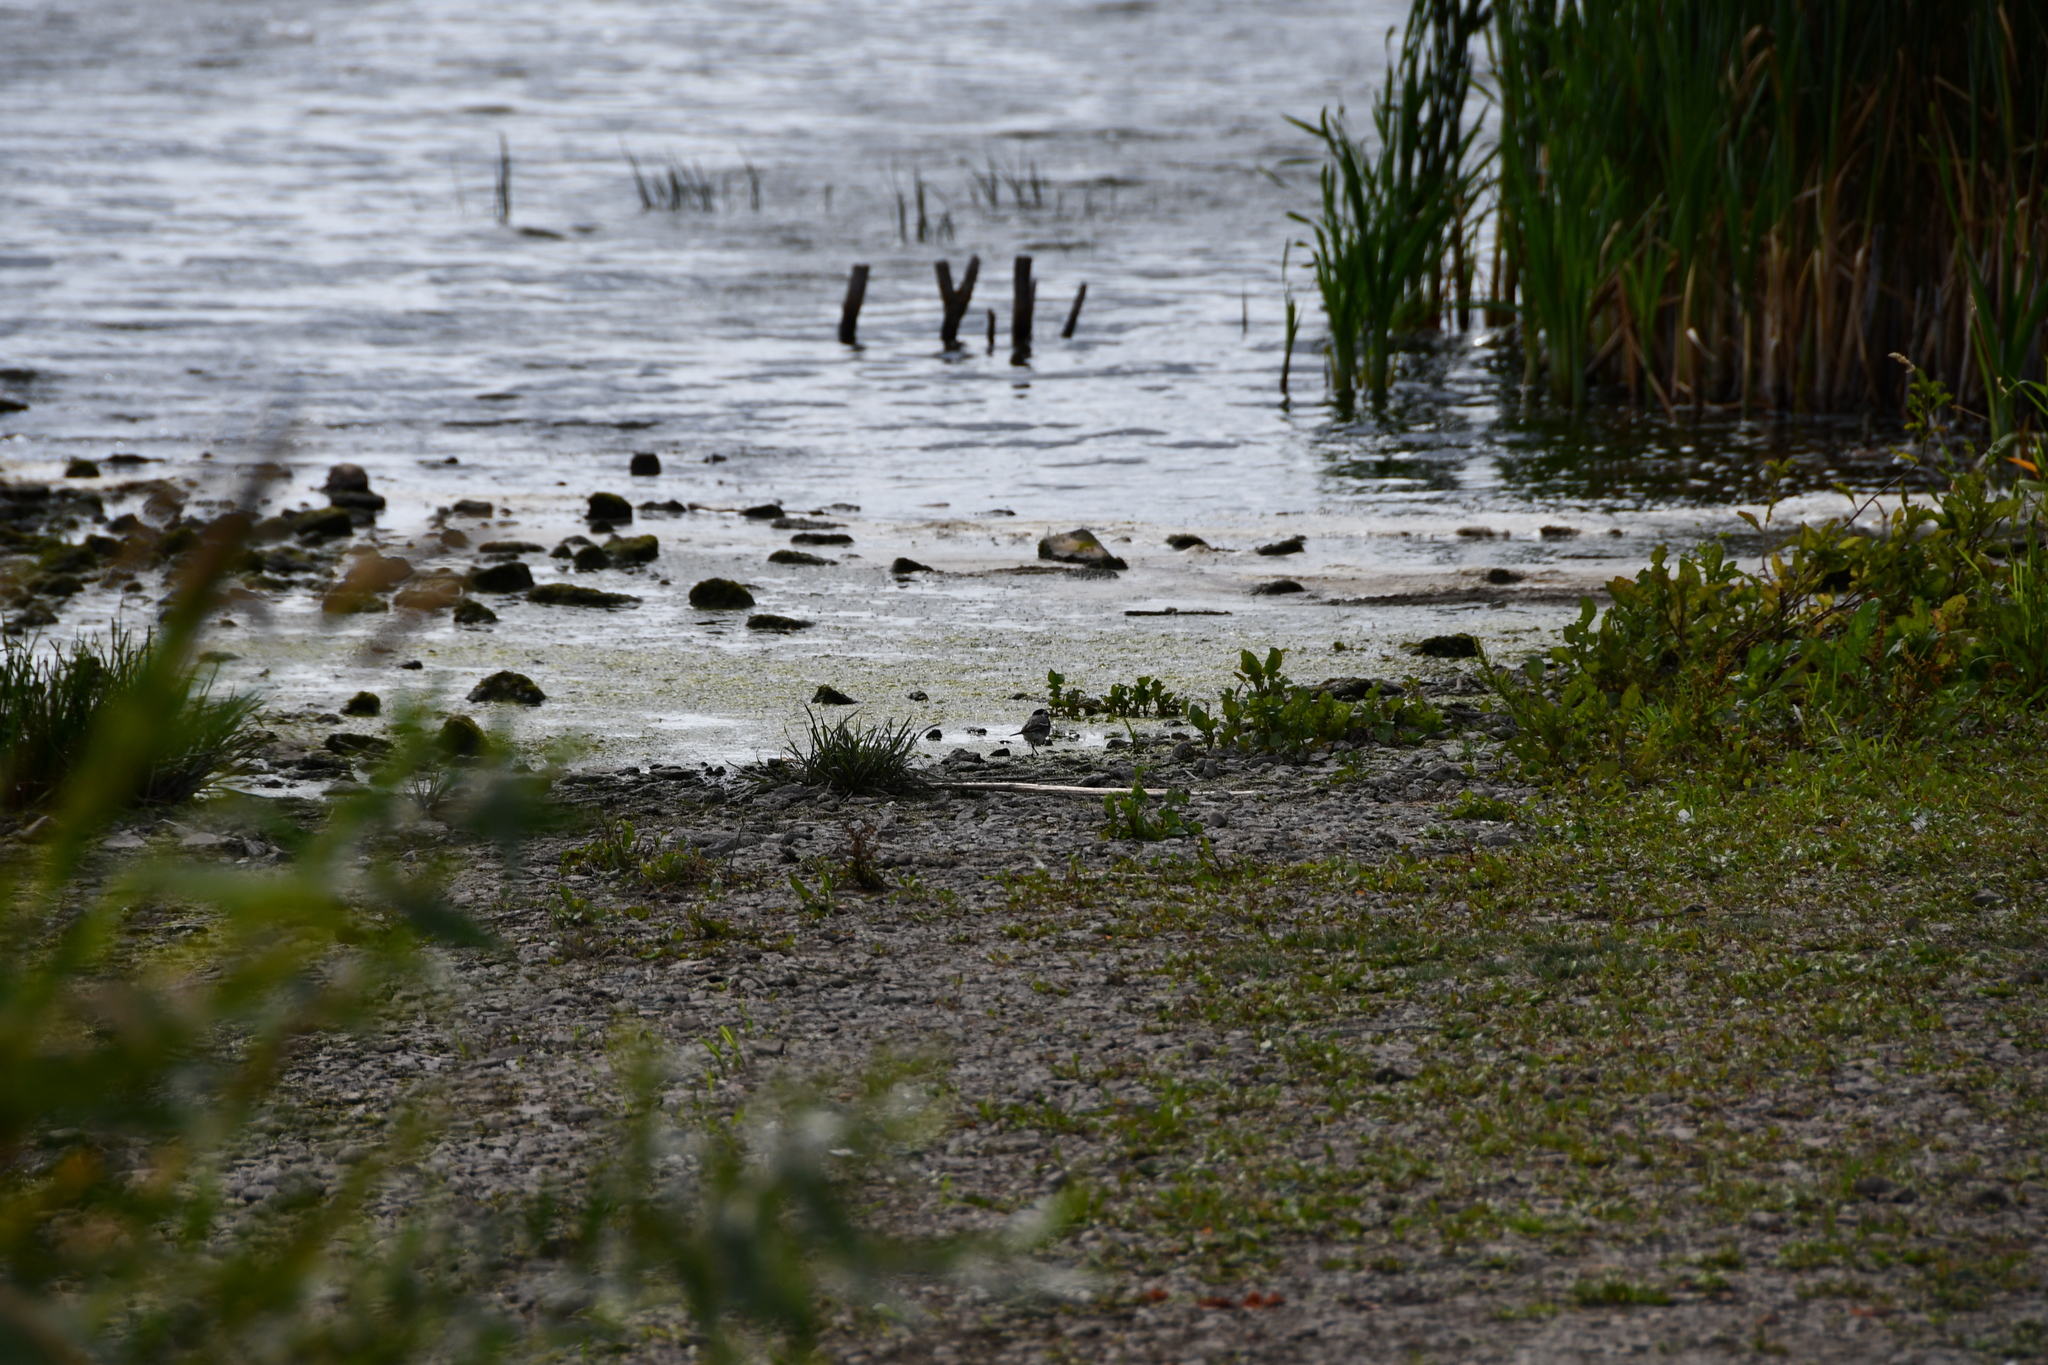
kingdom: Animalia
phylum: Chordata
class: Aves
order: Passeriformes
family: Motacillidae
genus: Motacilla
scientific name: Motacilla alba
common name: White wagtail
